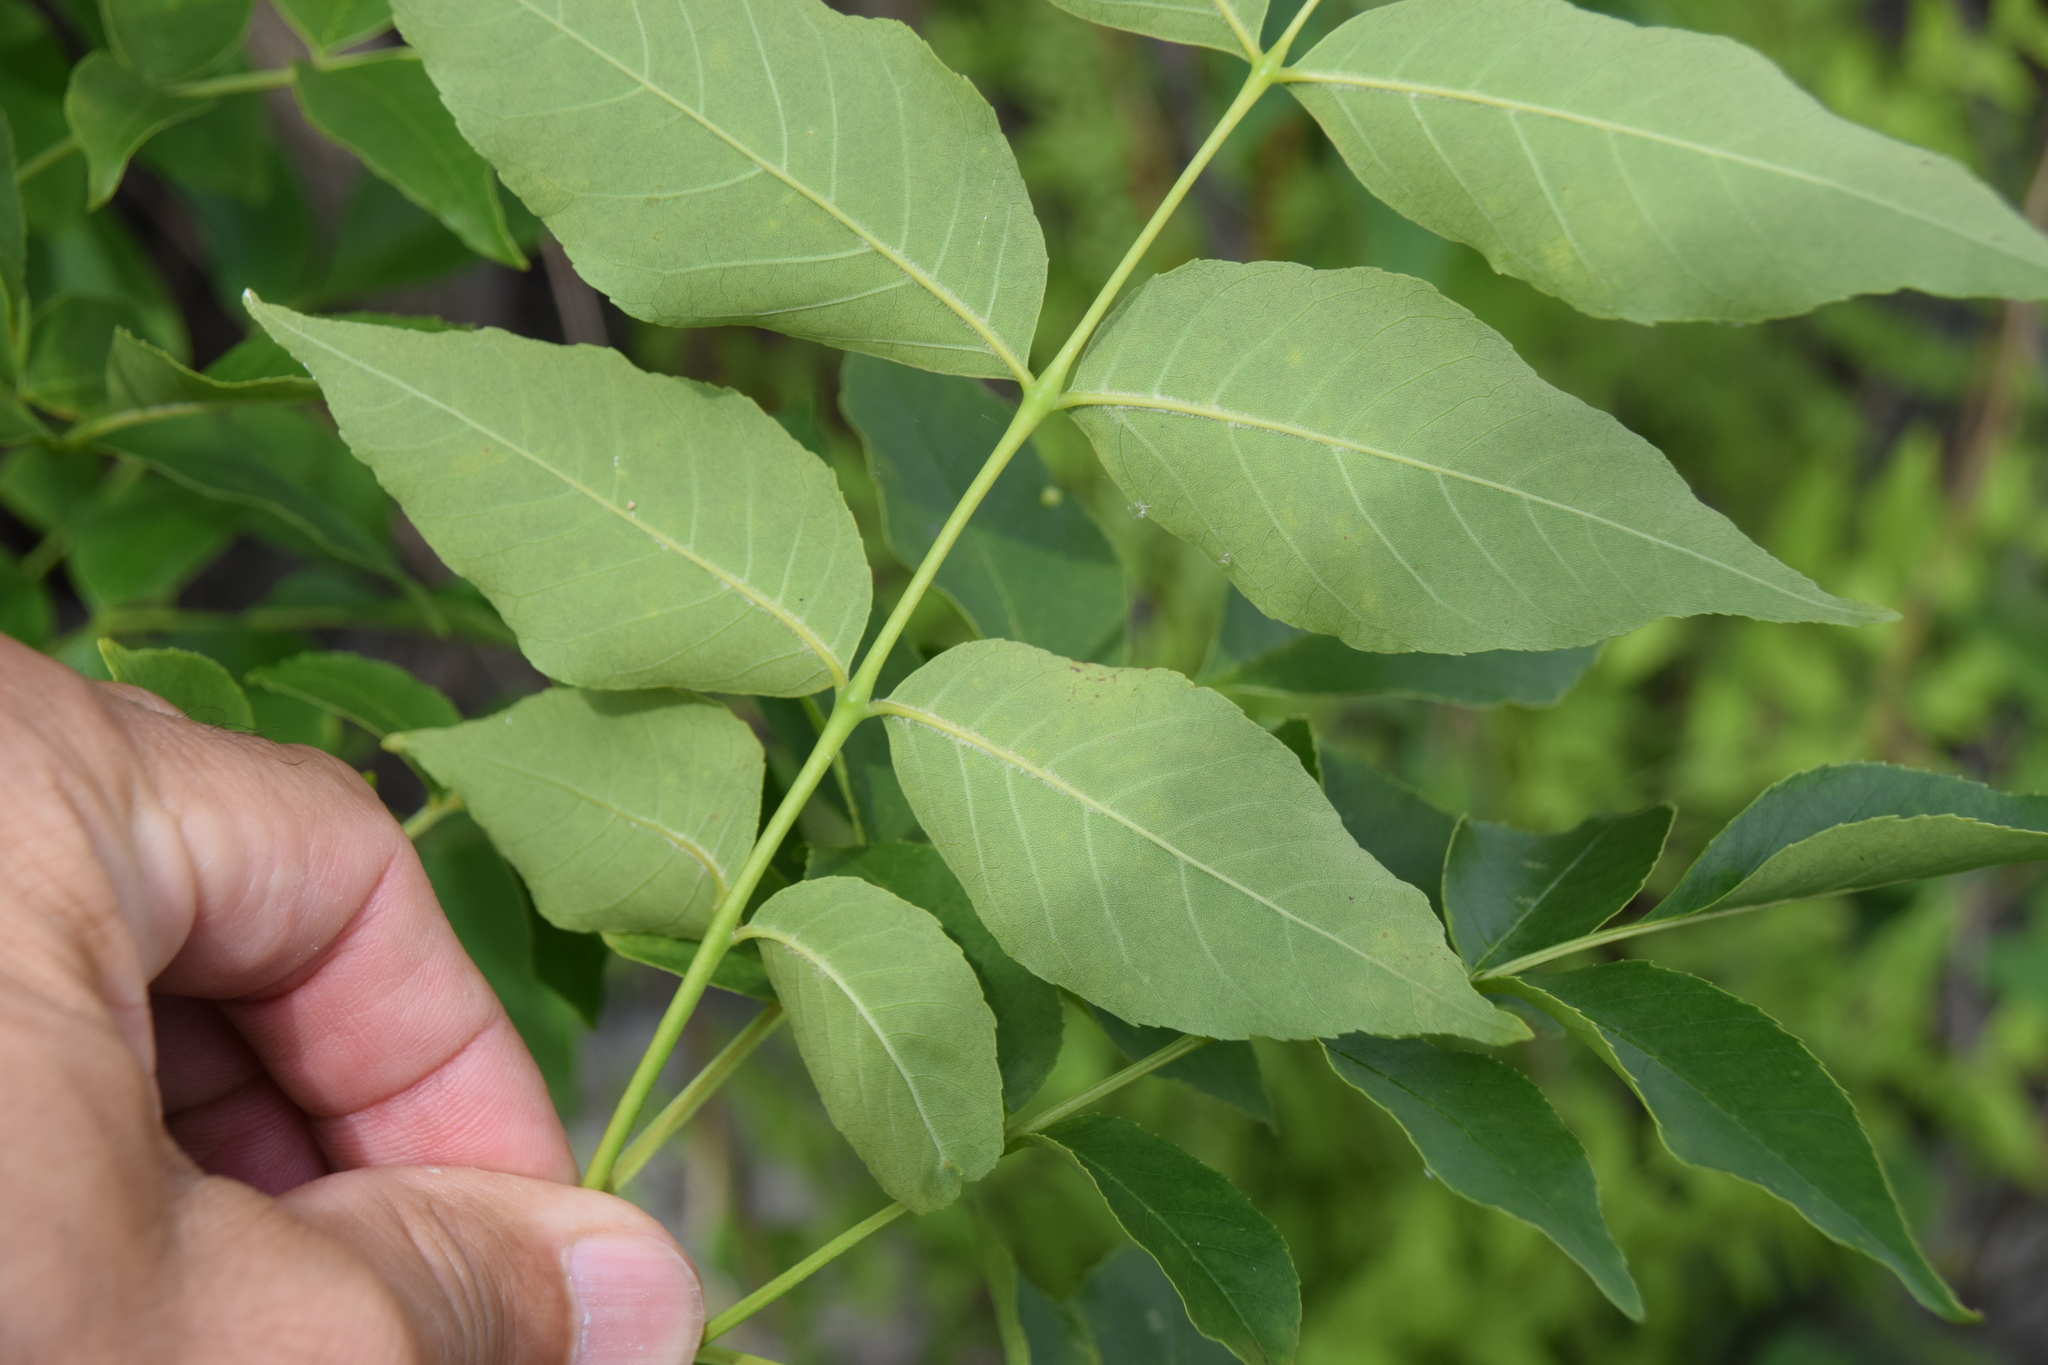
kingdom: Plantae
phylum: Tracheophyta
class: Magnoliopsida
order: Lamiales
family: Oleaceae
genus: Fraxinus
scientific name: Fraxinus pennsylvanica
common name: Green ash
